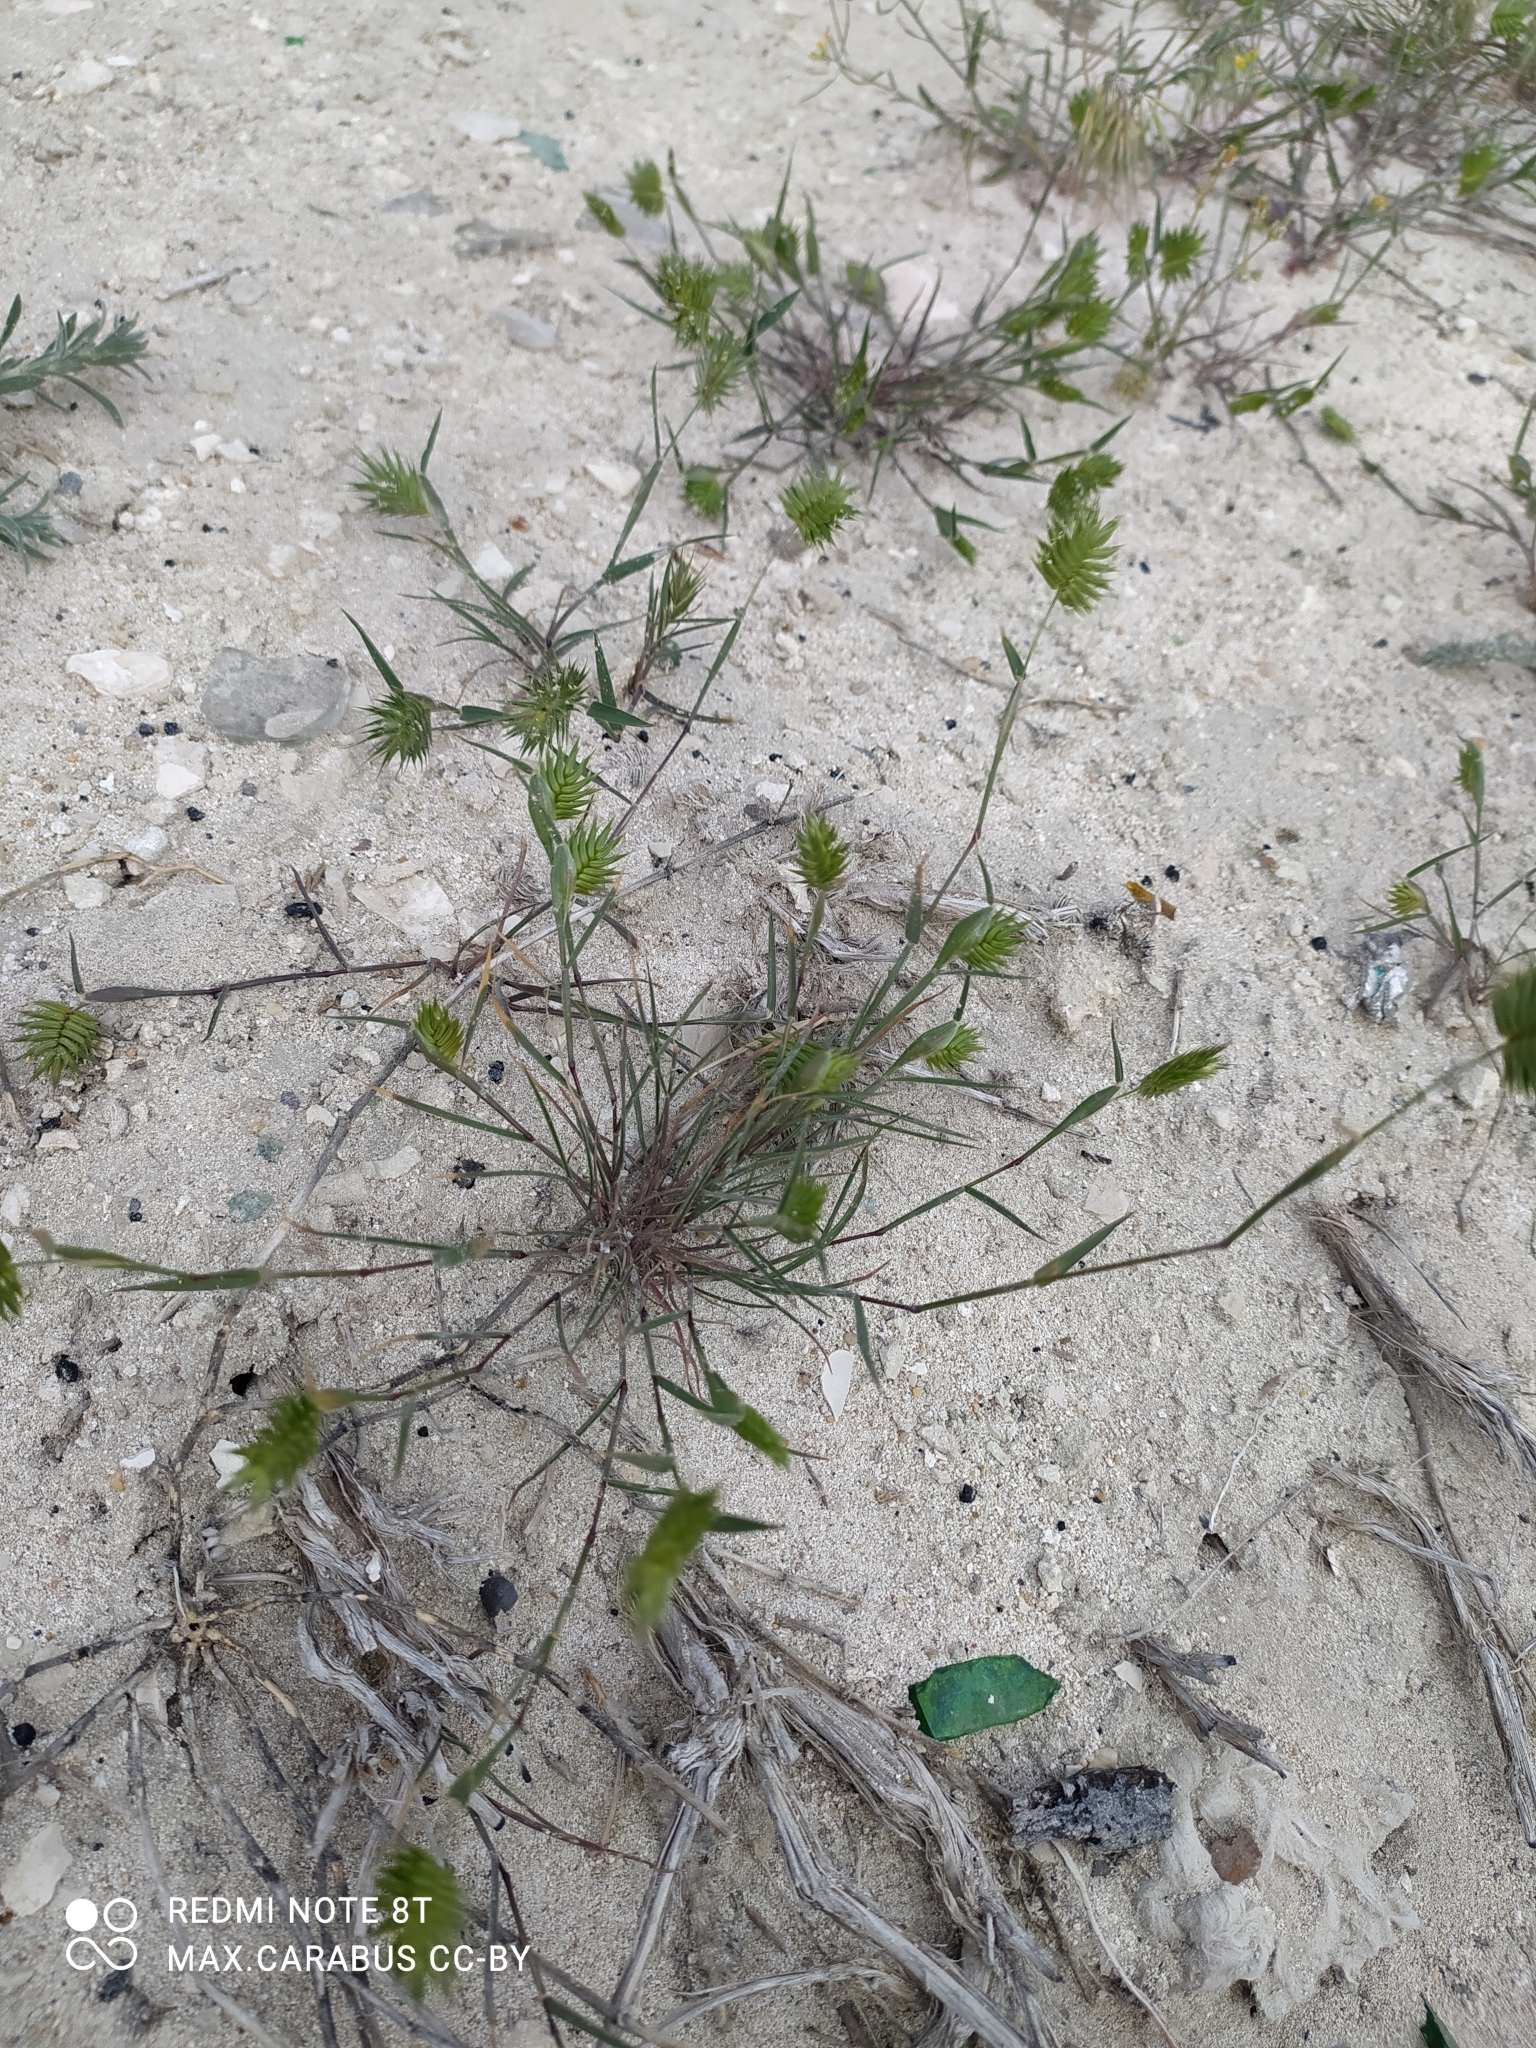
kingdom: Plantae
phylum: Tracheophyta
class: Liliopsida
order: Poales
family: Poaceae
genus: Eremopyrum
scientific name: Eremopyrum triticeum
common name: Annual wheatgrass
